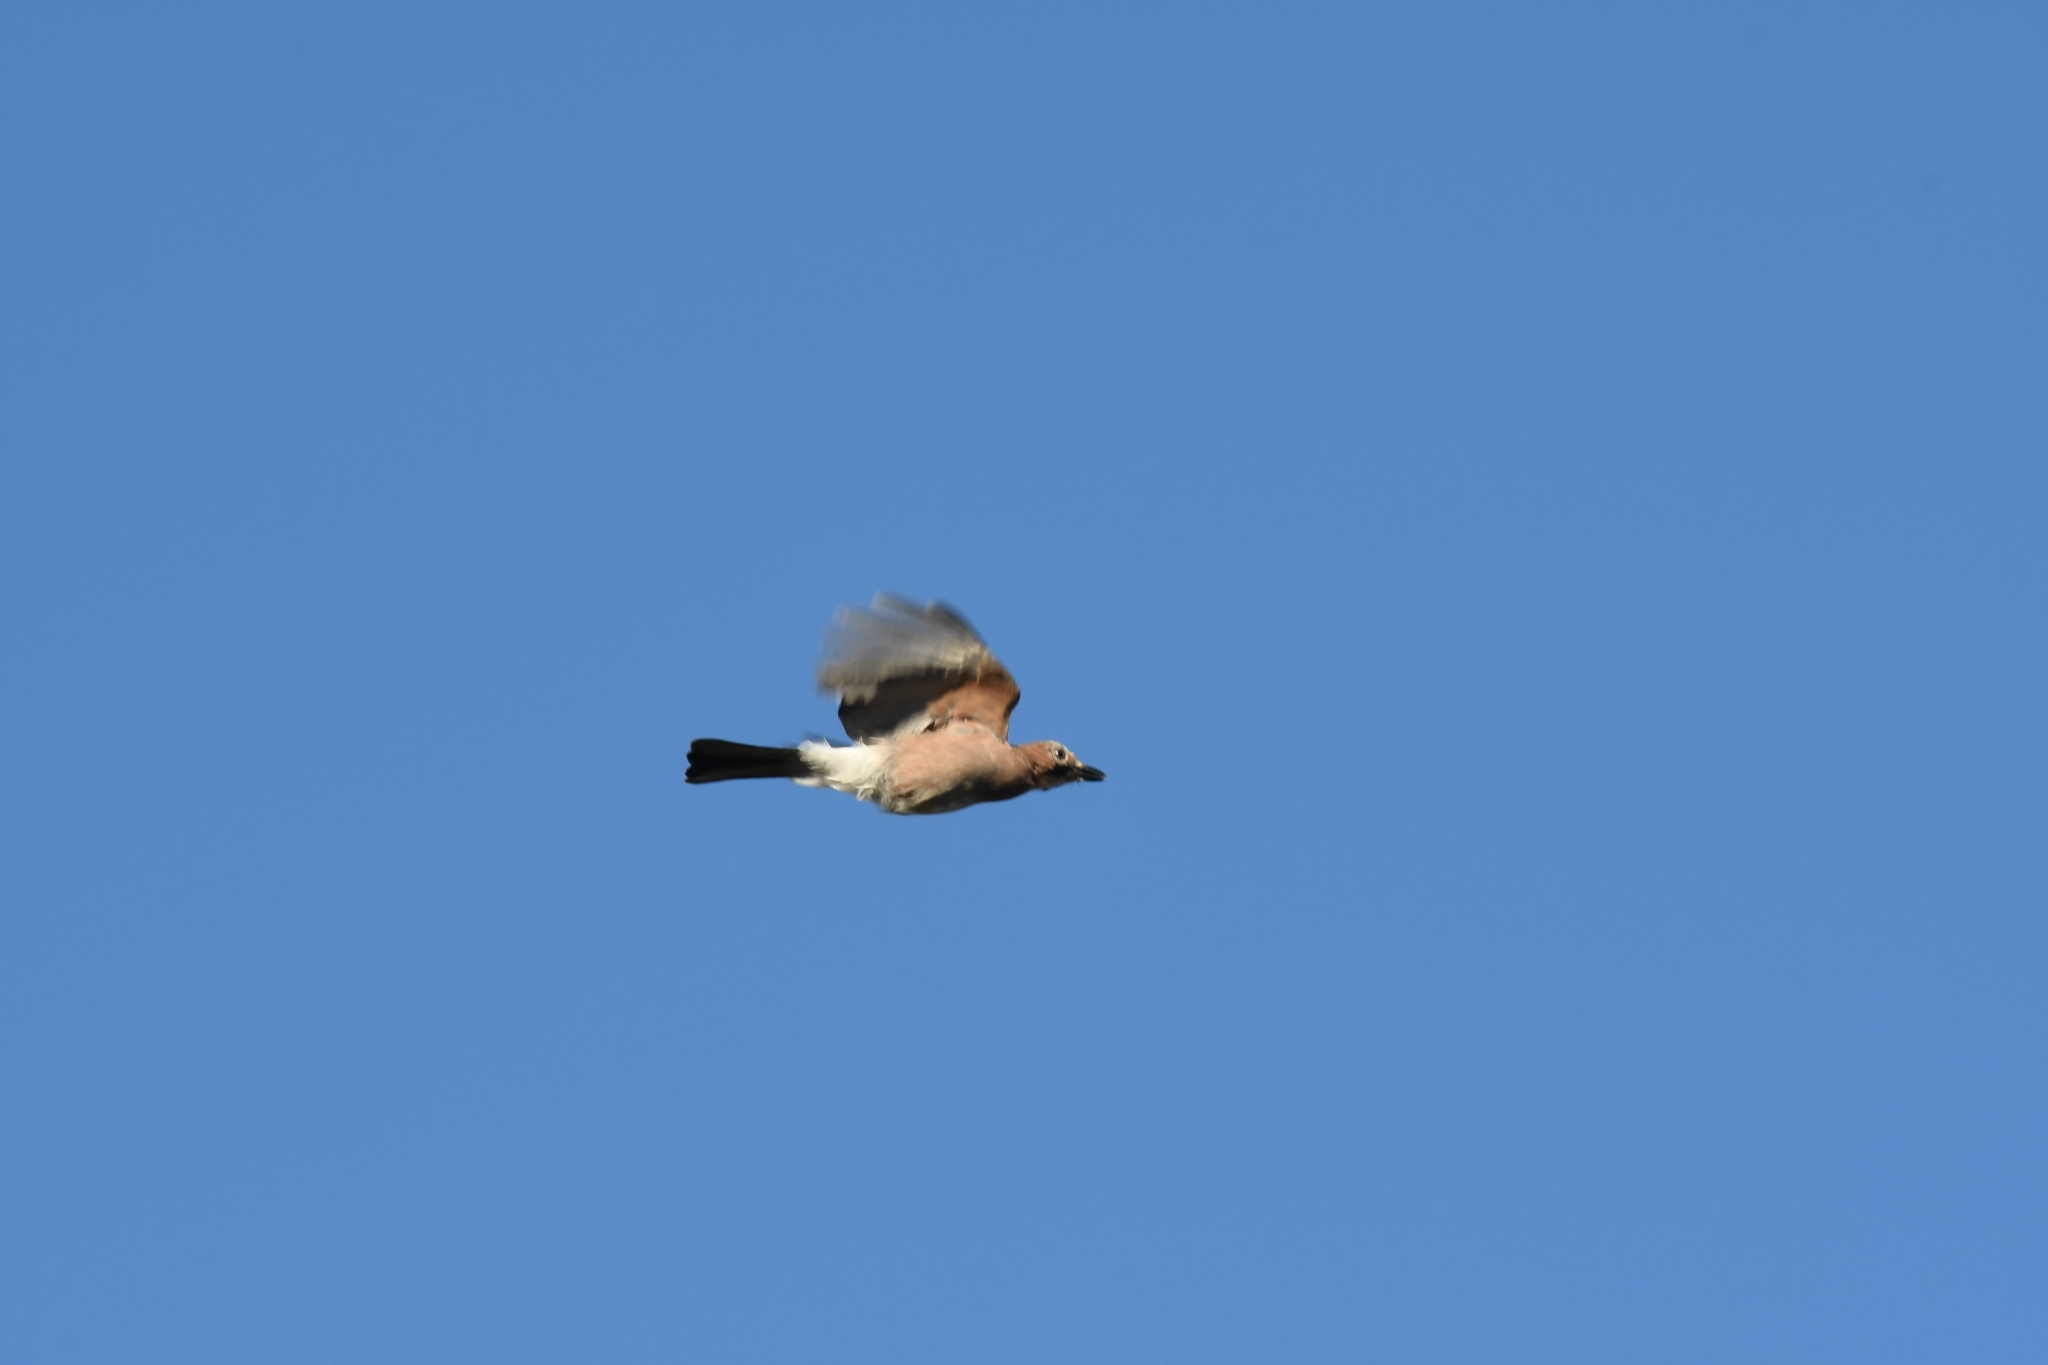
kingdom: Animalia
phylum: Chordata
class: Aves
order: Passeriformes
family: Corvidae
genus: Garrulus
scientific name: Garrulus glandarius
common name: Eurasian jay
